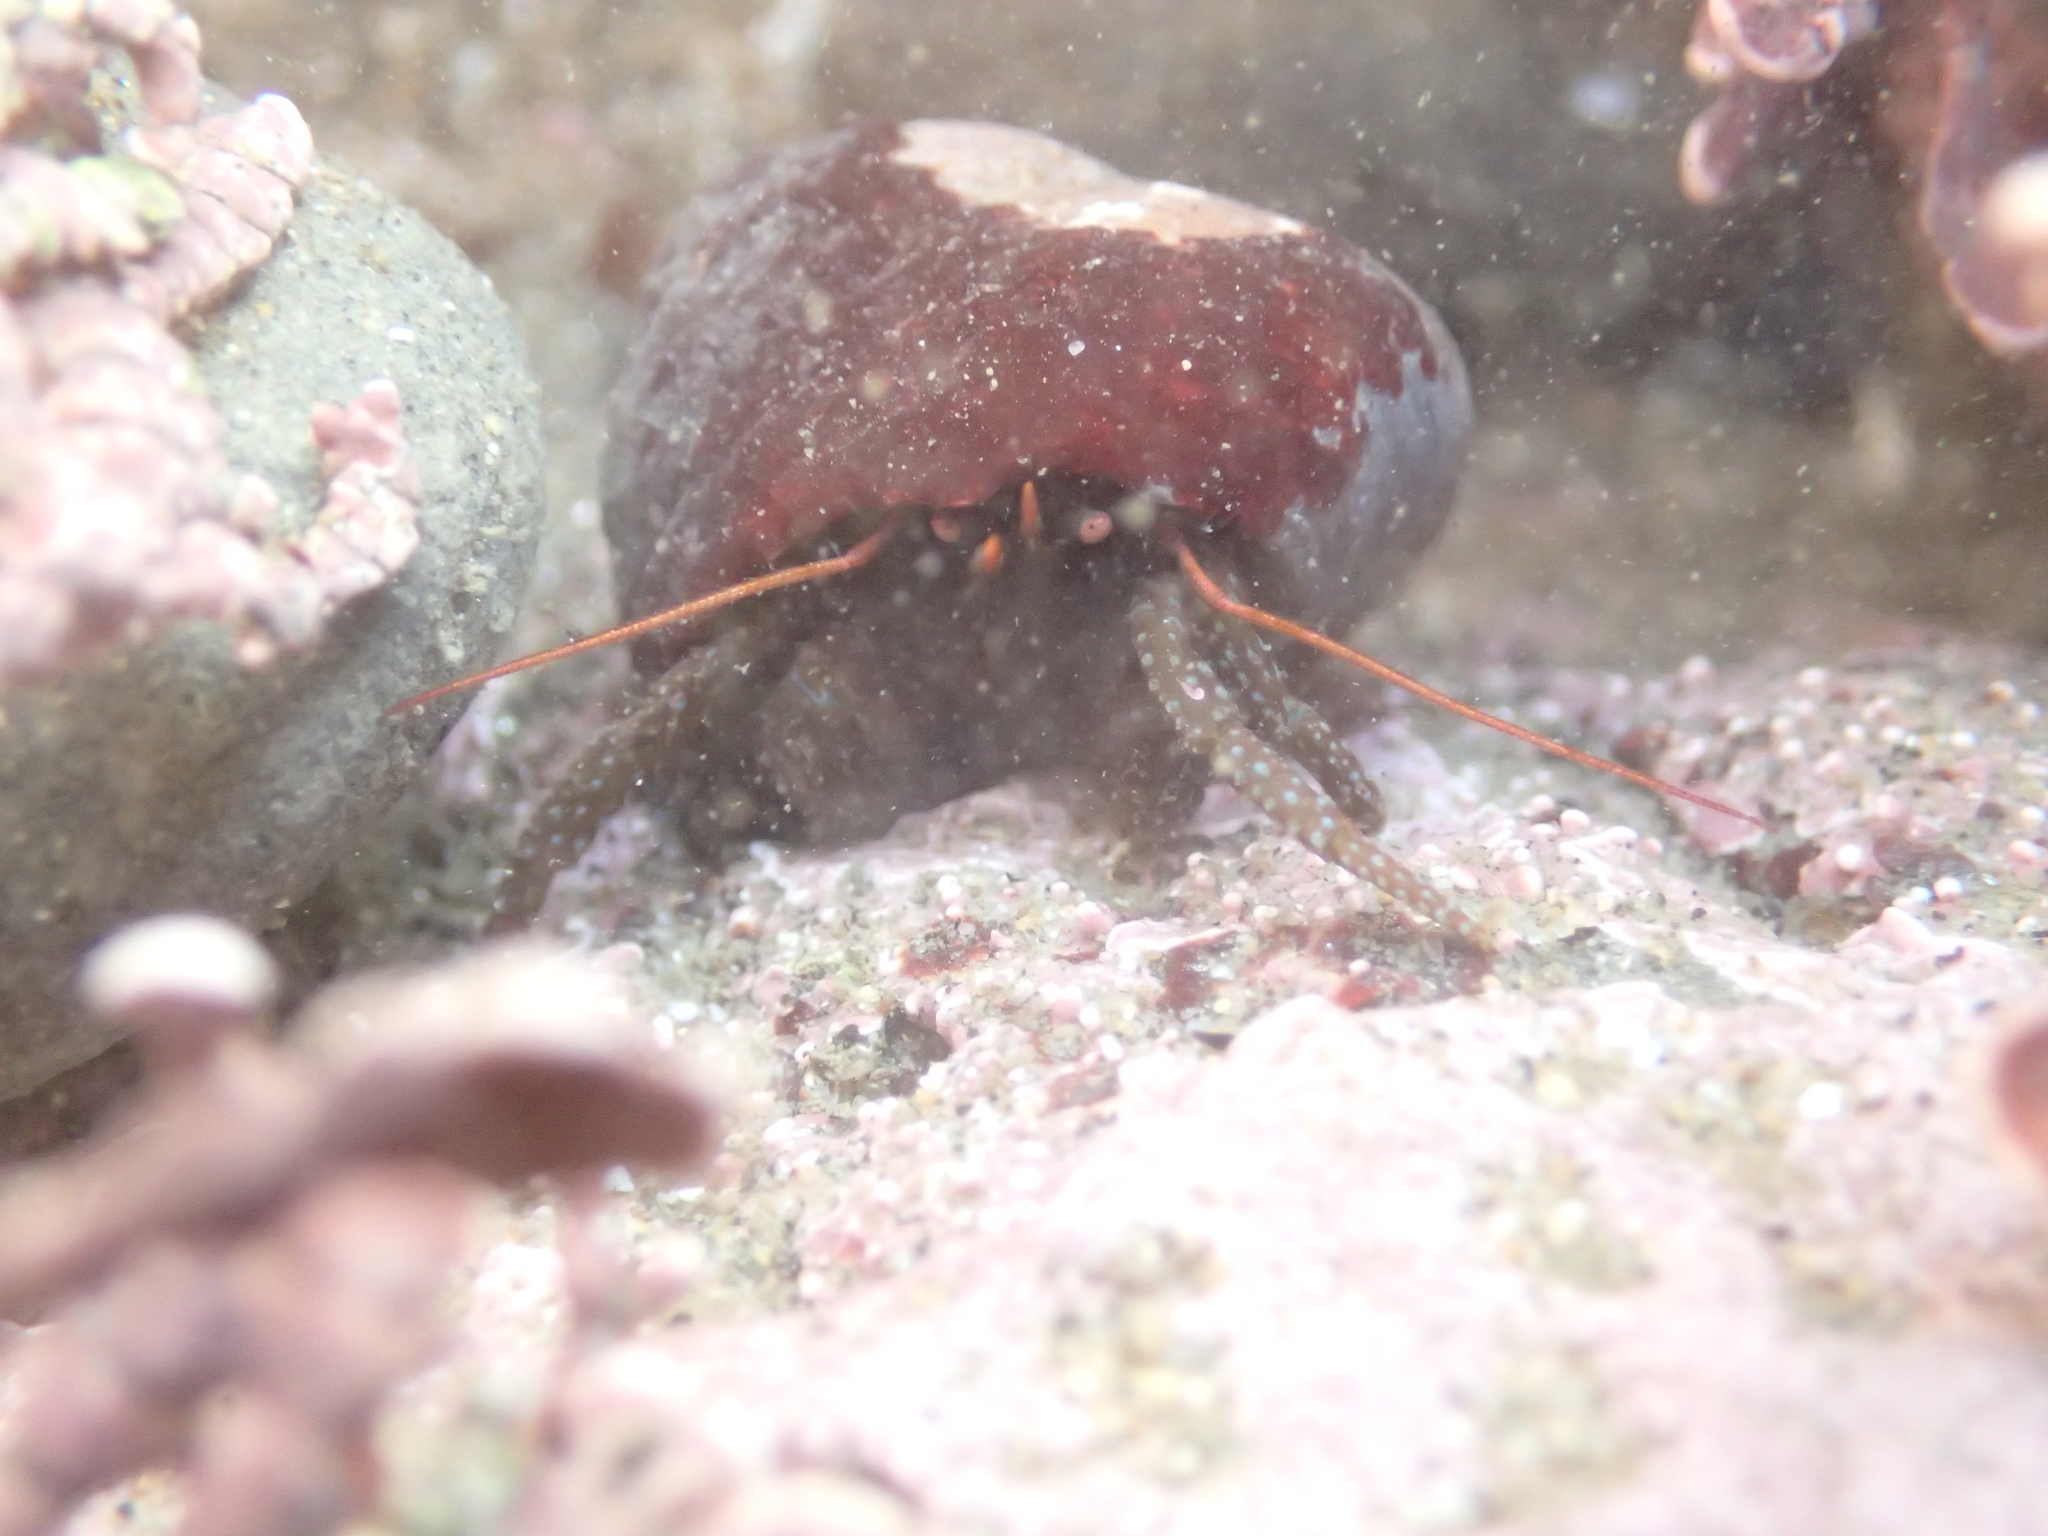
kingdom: Animalia
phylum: Arthropoda
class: Malacostraca
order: Decapoda
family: Paguridae
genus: Pagurus
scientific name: Pagurus granosimanus
